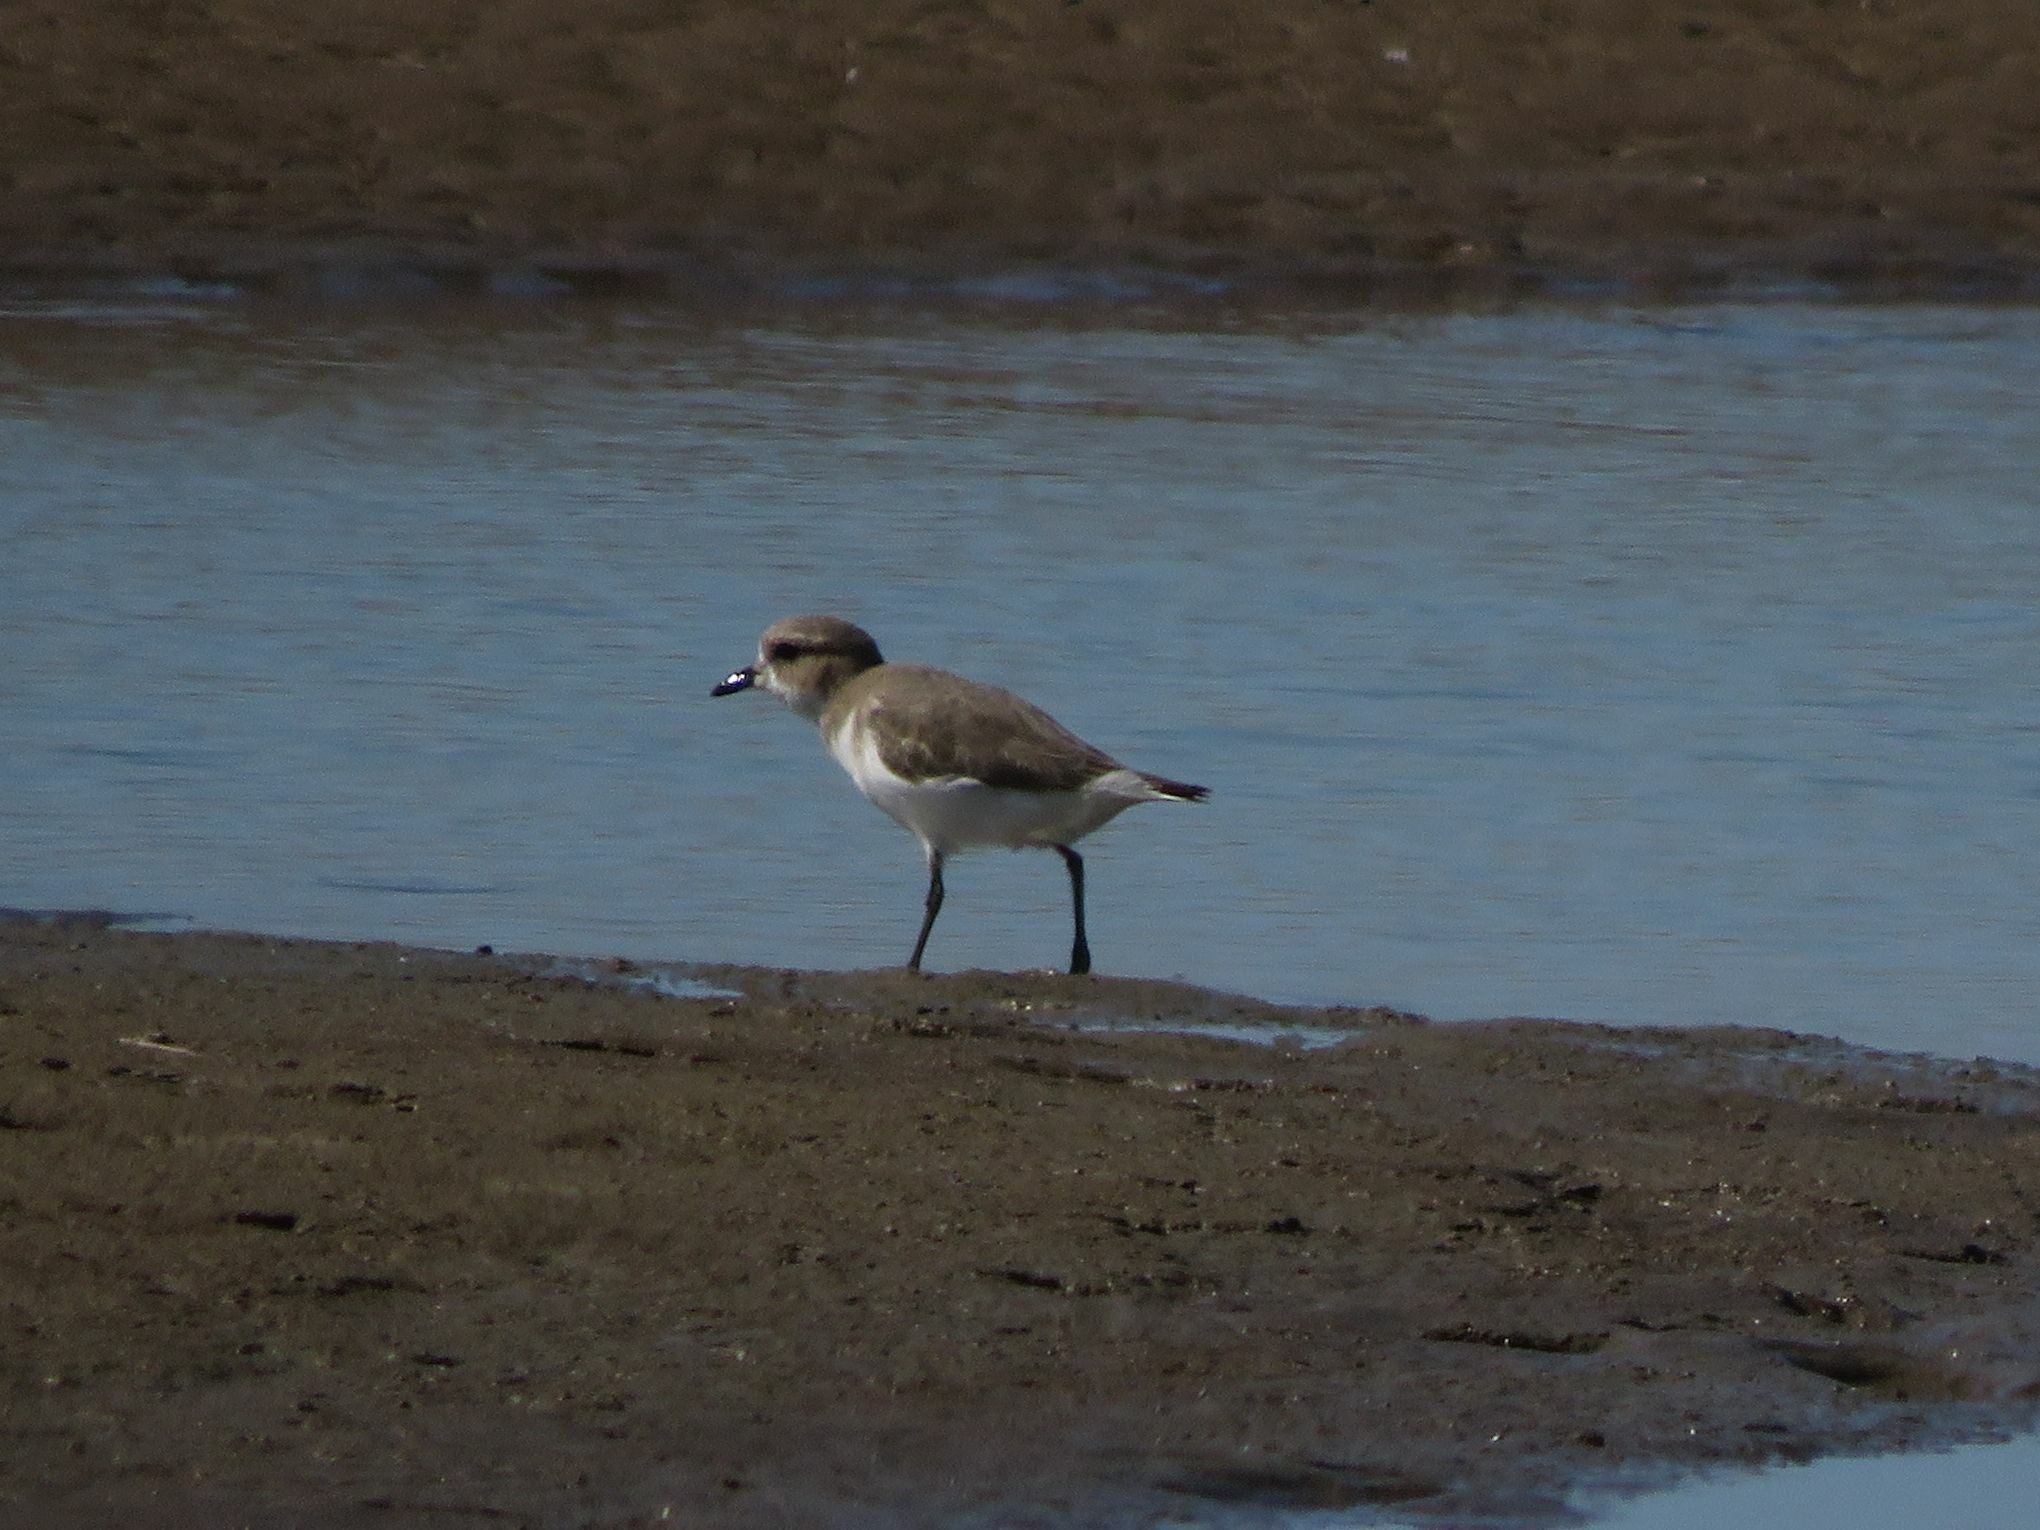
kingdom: Animalia
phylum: Chordata
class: Aves
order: Charadriiformes
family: Charadriidae
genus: Anarhynchus
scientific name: Anarhynchus
